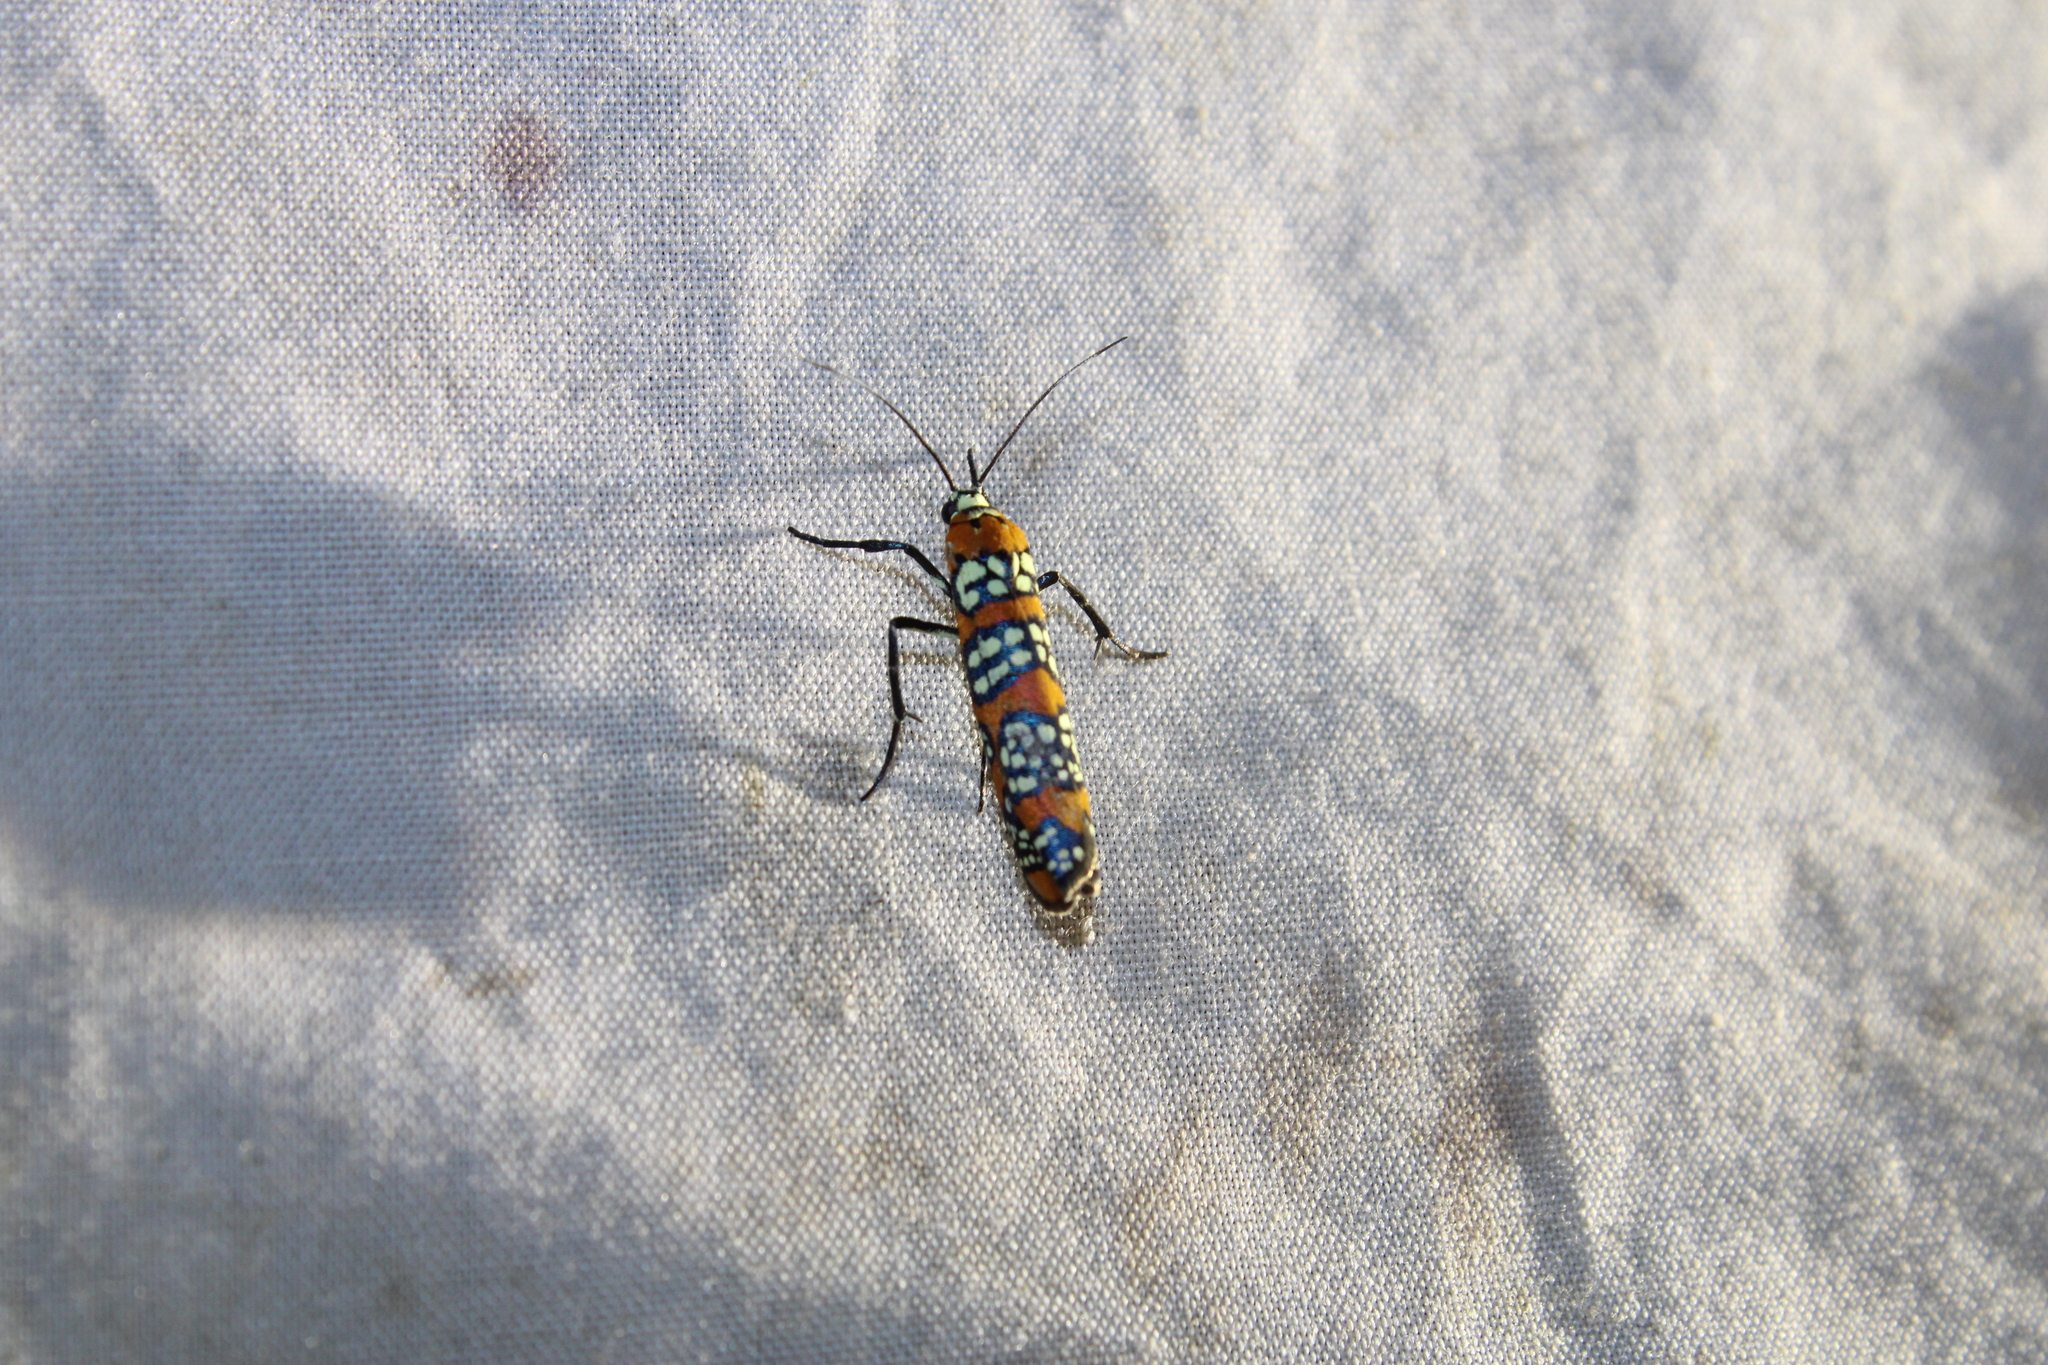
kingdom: Animalia
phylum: Arthropoda
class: Insecta
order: Lepidoptera
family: Attevidae
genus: Atteva
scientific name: Atteva punctella
